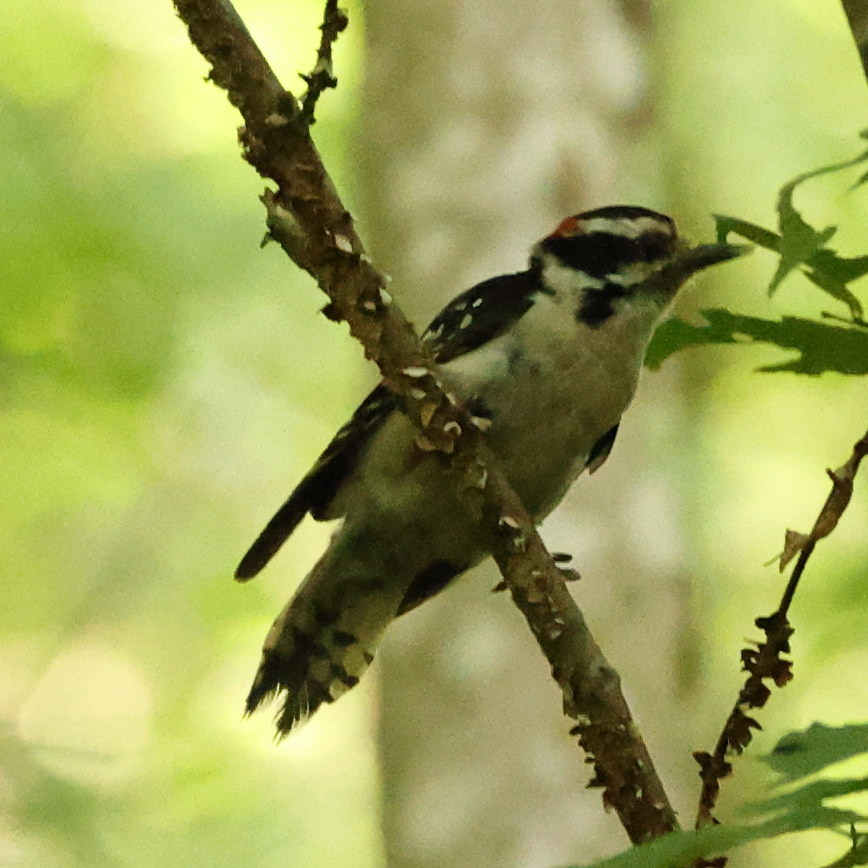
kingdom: Animalia
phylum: Chordata
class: Aves
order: Piciformes
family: Picidae
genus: Dryobates
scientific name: Dryobates pubescens
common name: Downy woodpecker
